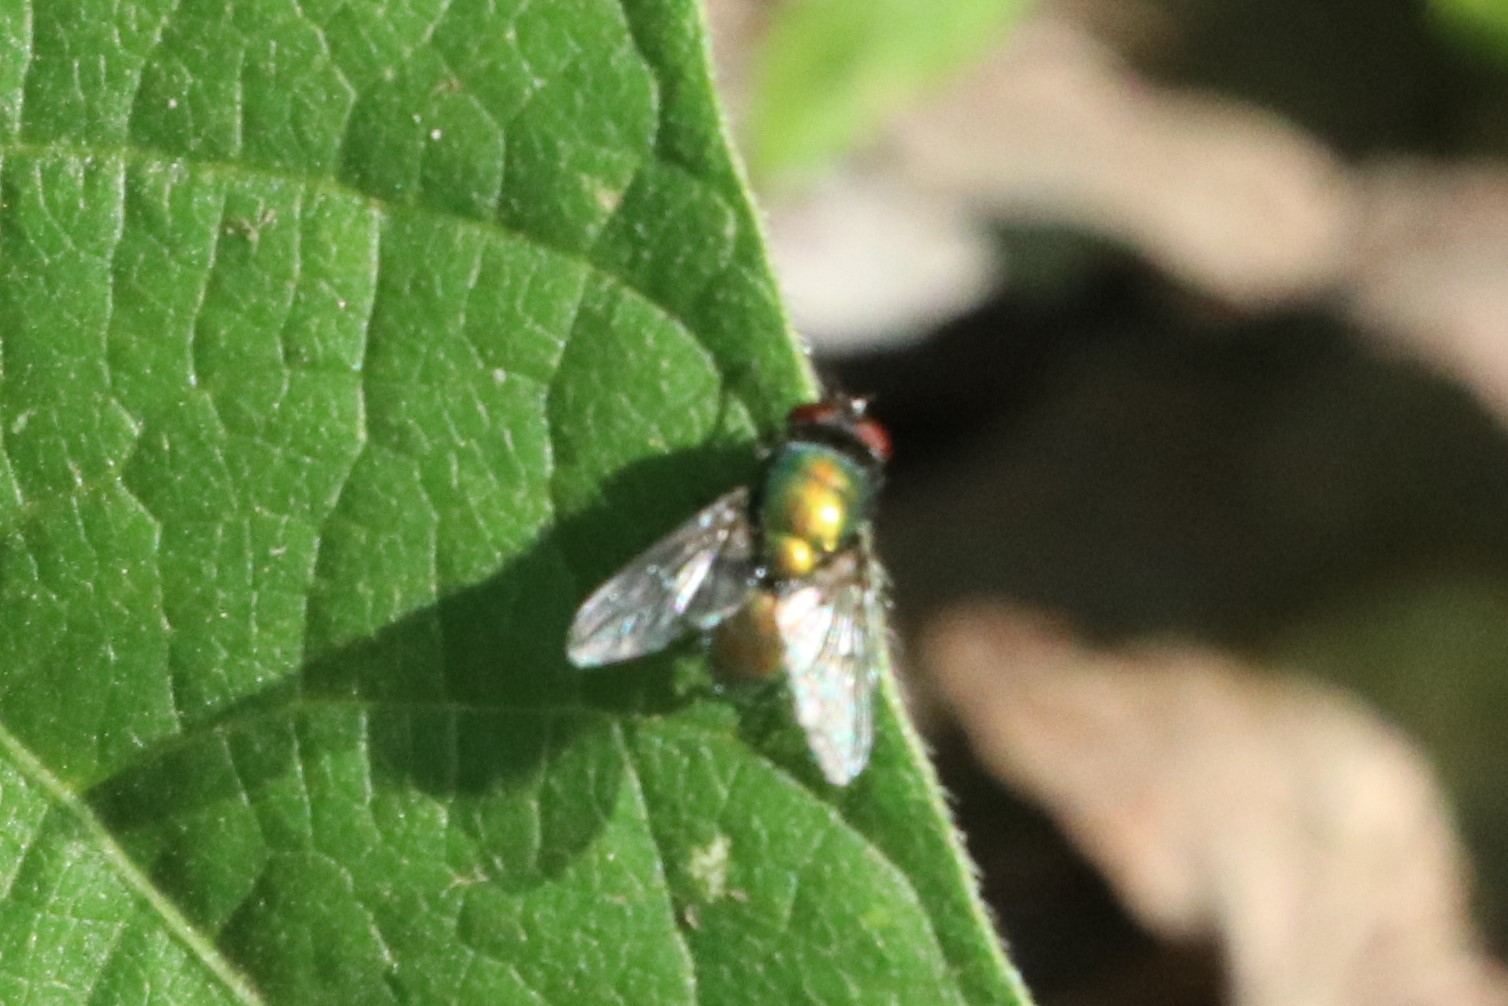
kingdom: Animalia
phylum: Arthropoda
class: Insecta
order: Diptera
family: Calliphoridae
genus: Lucilia
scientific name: Lucilia sericata
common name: Blow fly
